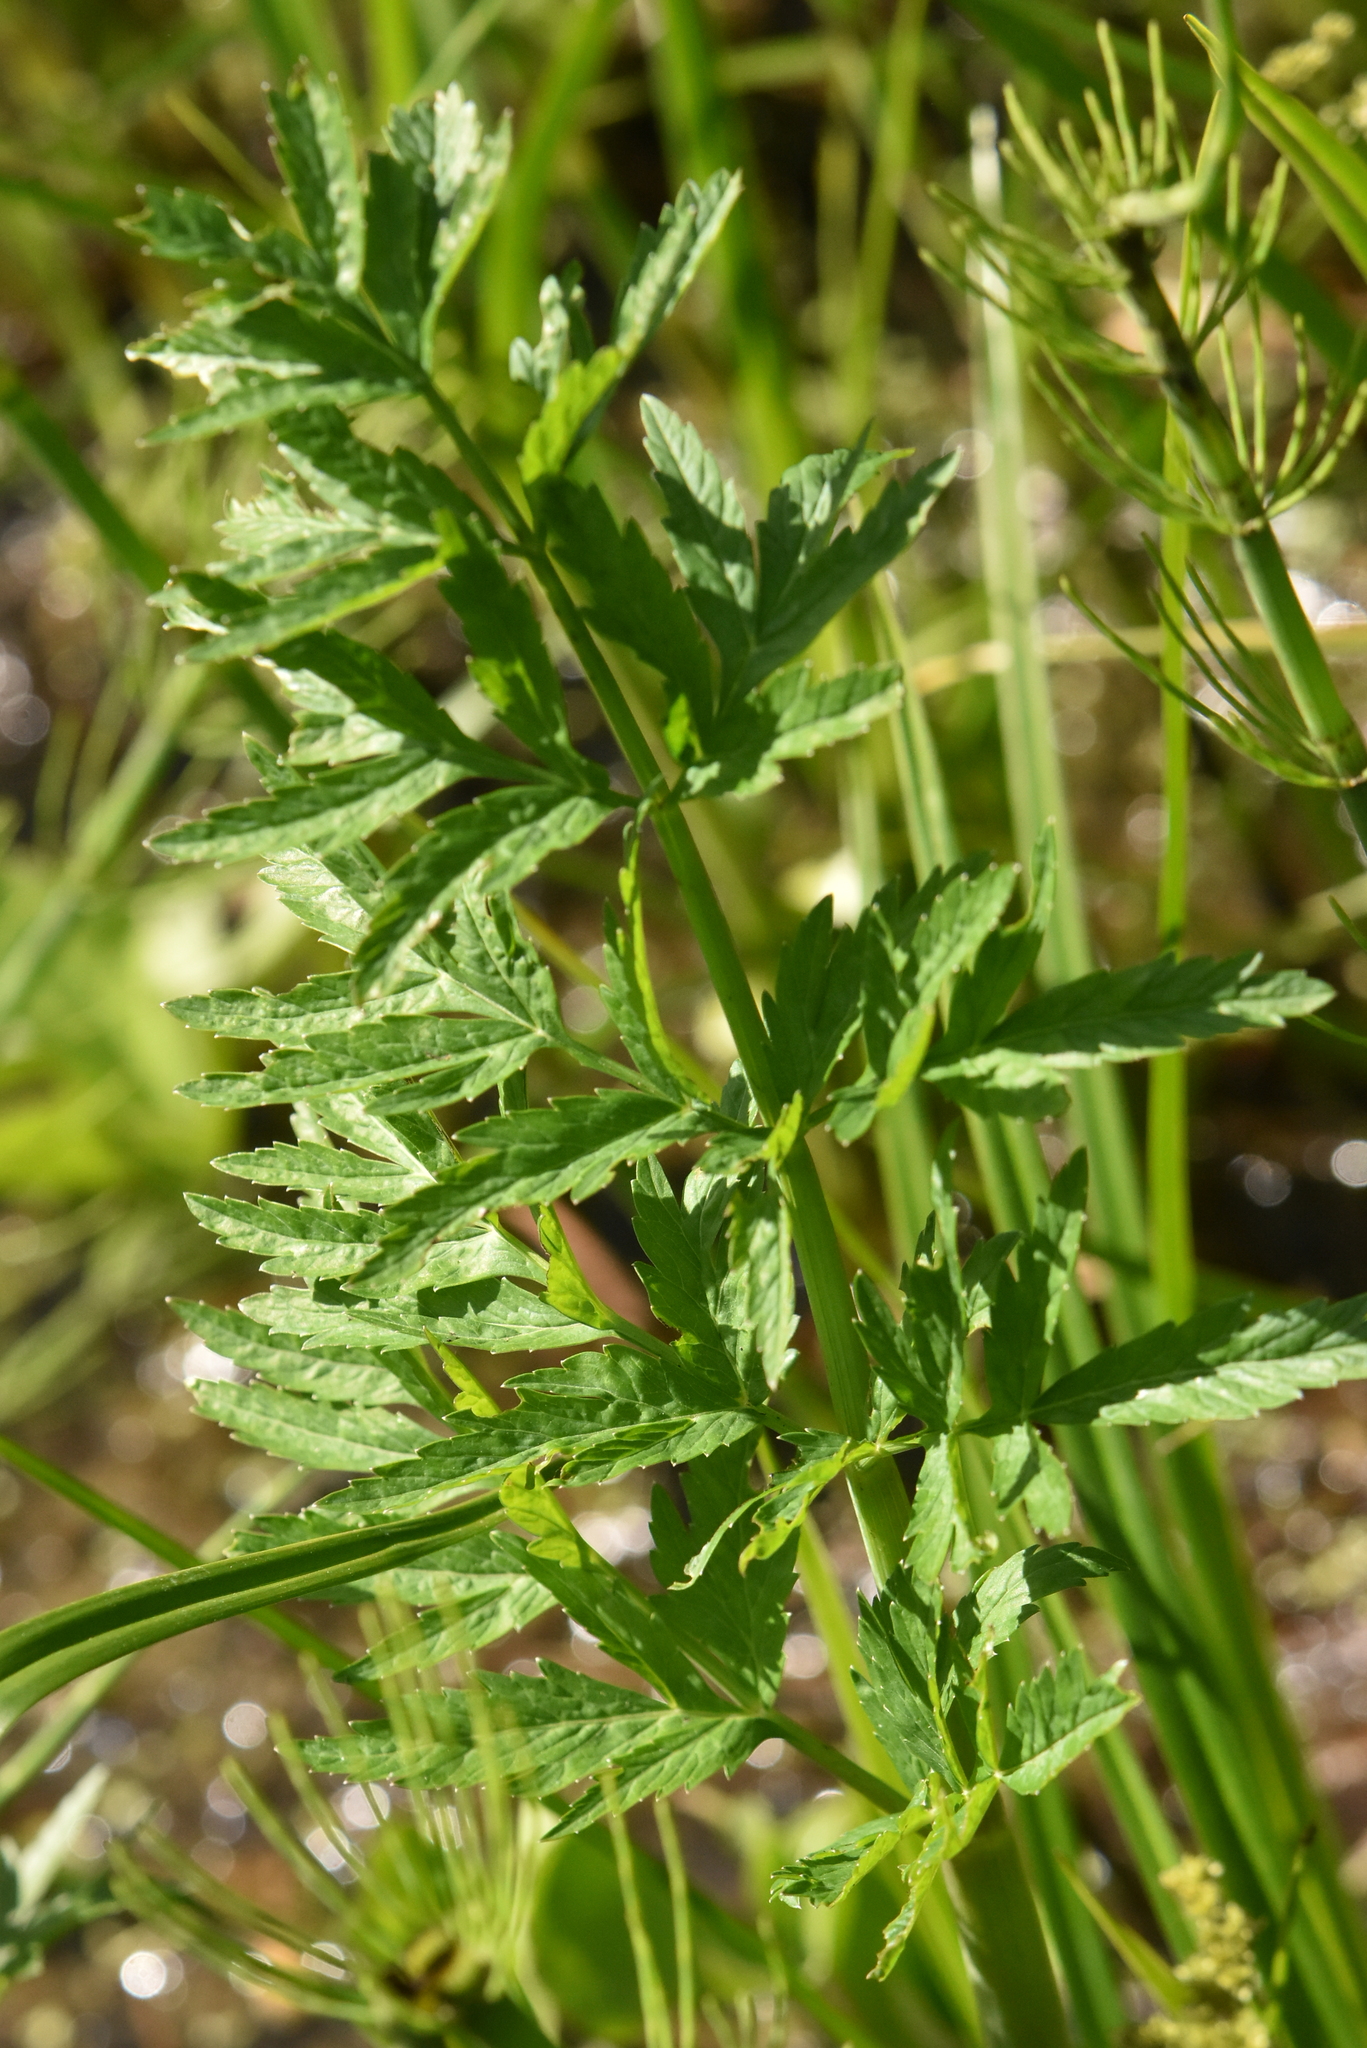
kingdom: Plantae
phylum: Tracheophyta
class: Magnoliopsida
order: Apiales
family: Apiaceae
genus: Cicuta
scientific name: Cicuta virosa
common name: Cowbane
